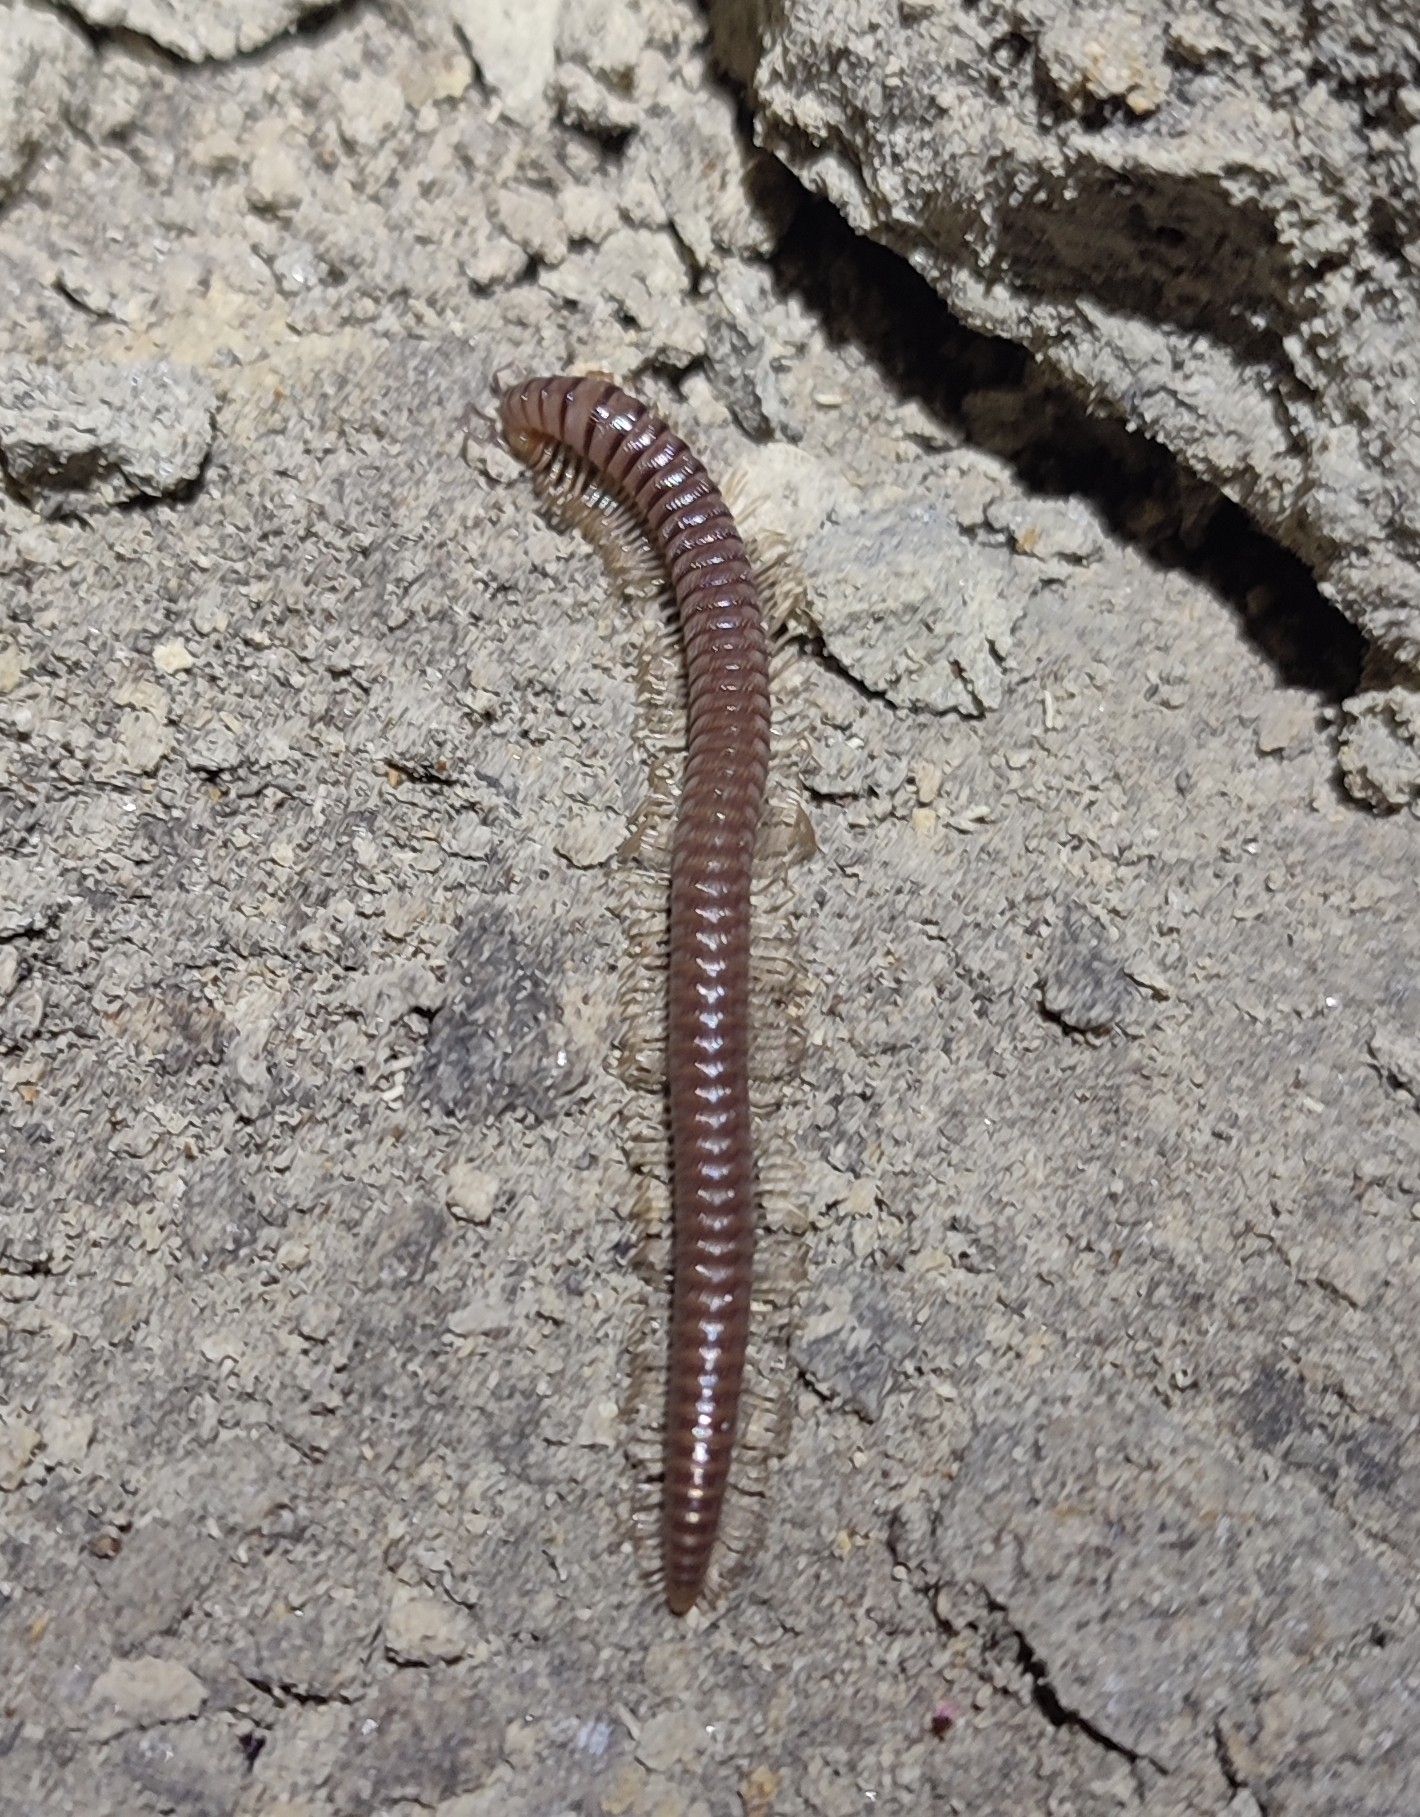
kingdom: Animalia
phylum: Arthropoda
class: Diplopoda
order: Callipodida
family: Callipodidae
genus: Callipus
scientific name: Callipus foetidissimus
